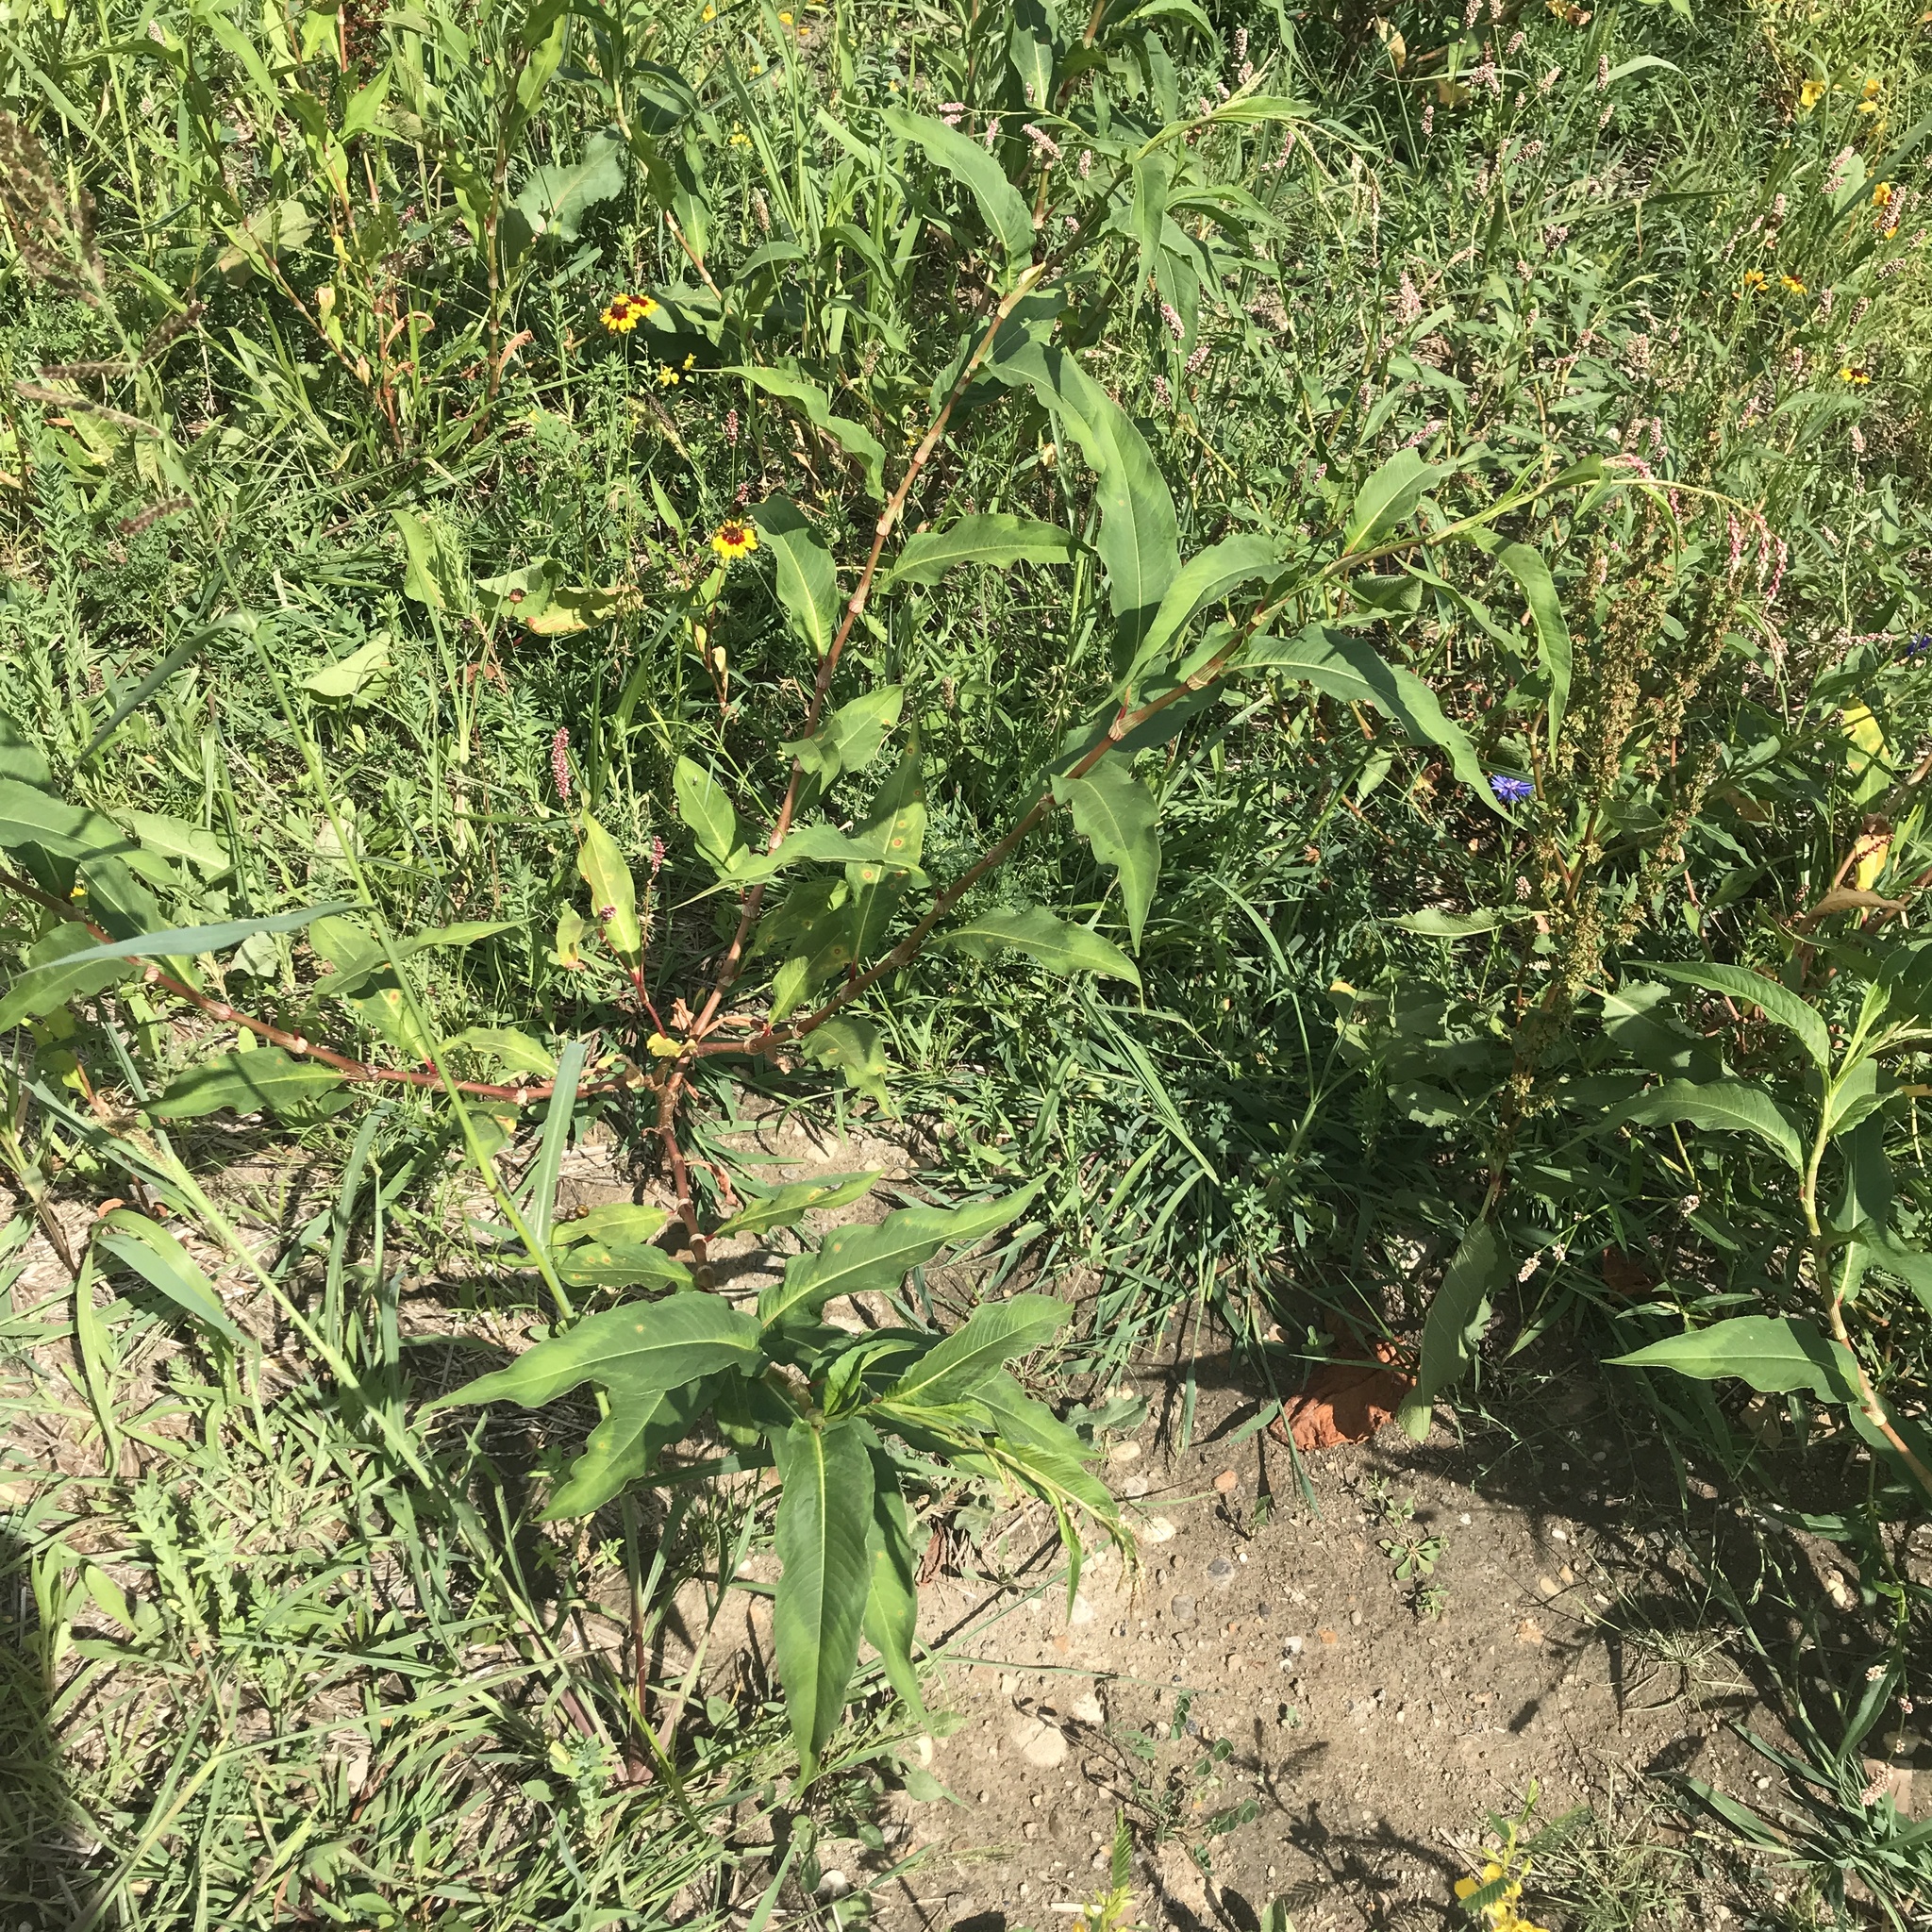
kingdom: Plantae
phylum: Tracheophyta
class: Magnoliopsida
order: Caryophyllales
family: Polygonaceae
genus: Persicaria
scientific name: Persicaria extremiorientalis
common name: Far-eastern smartweed
